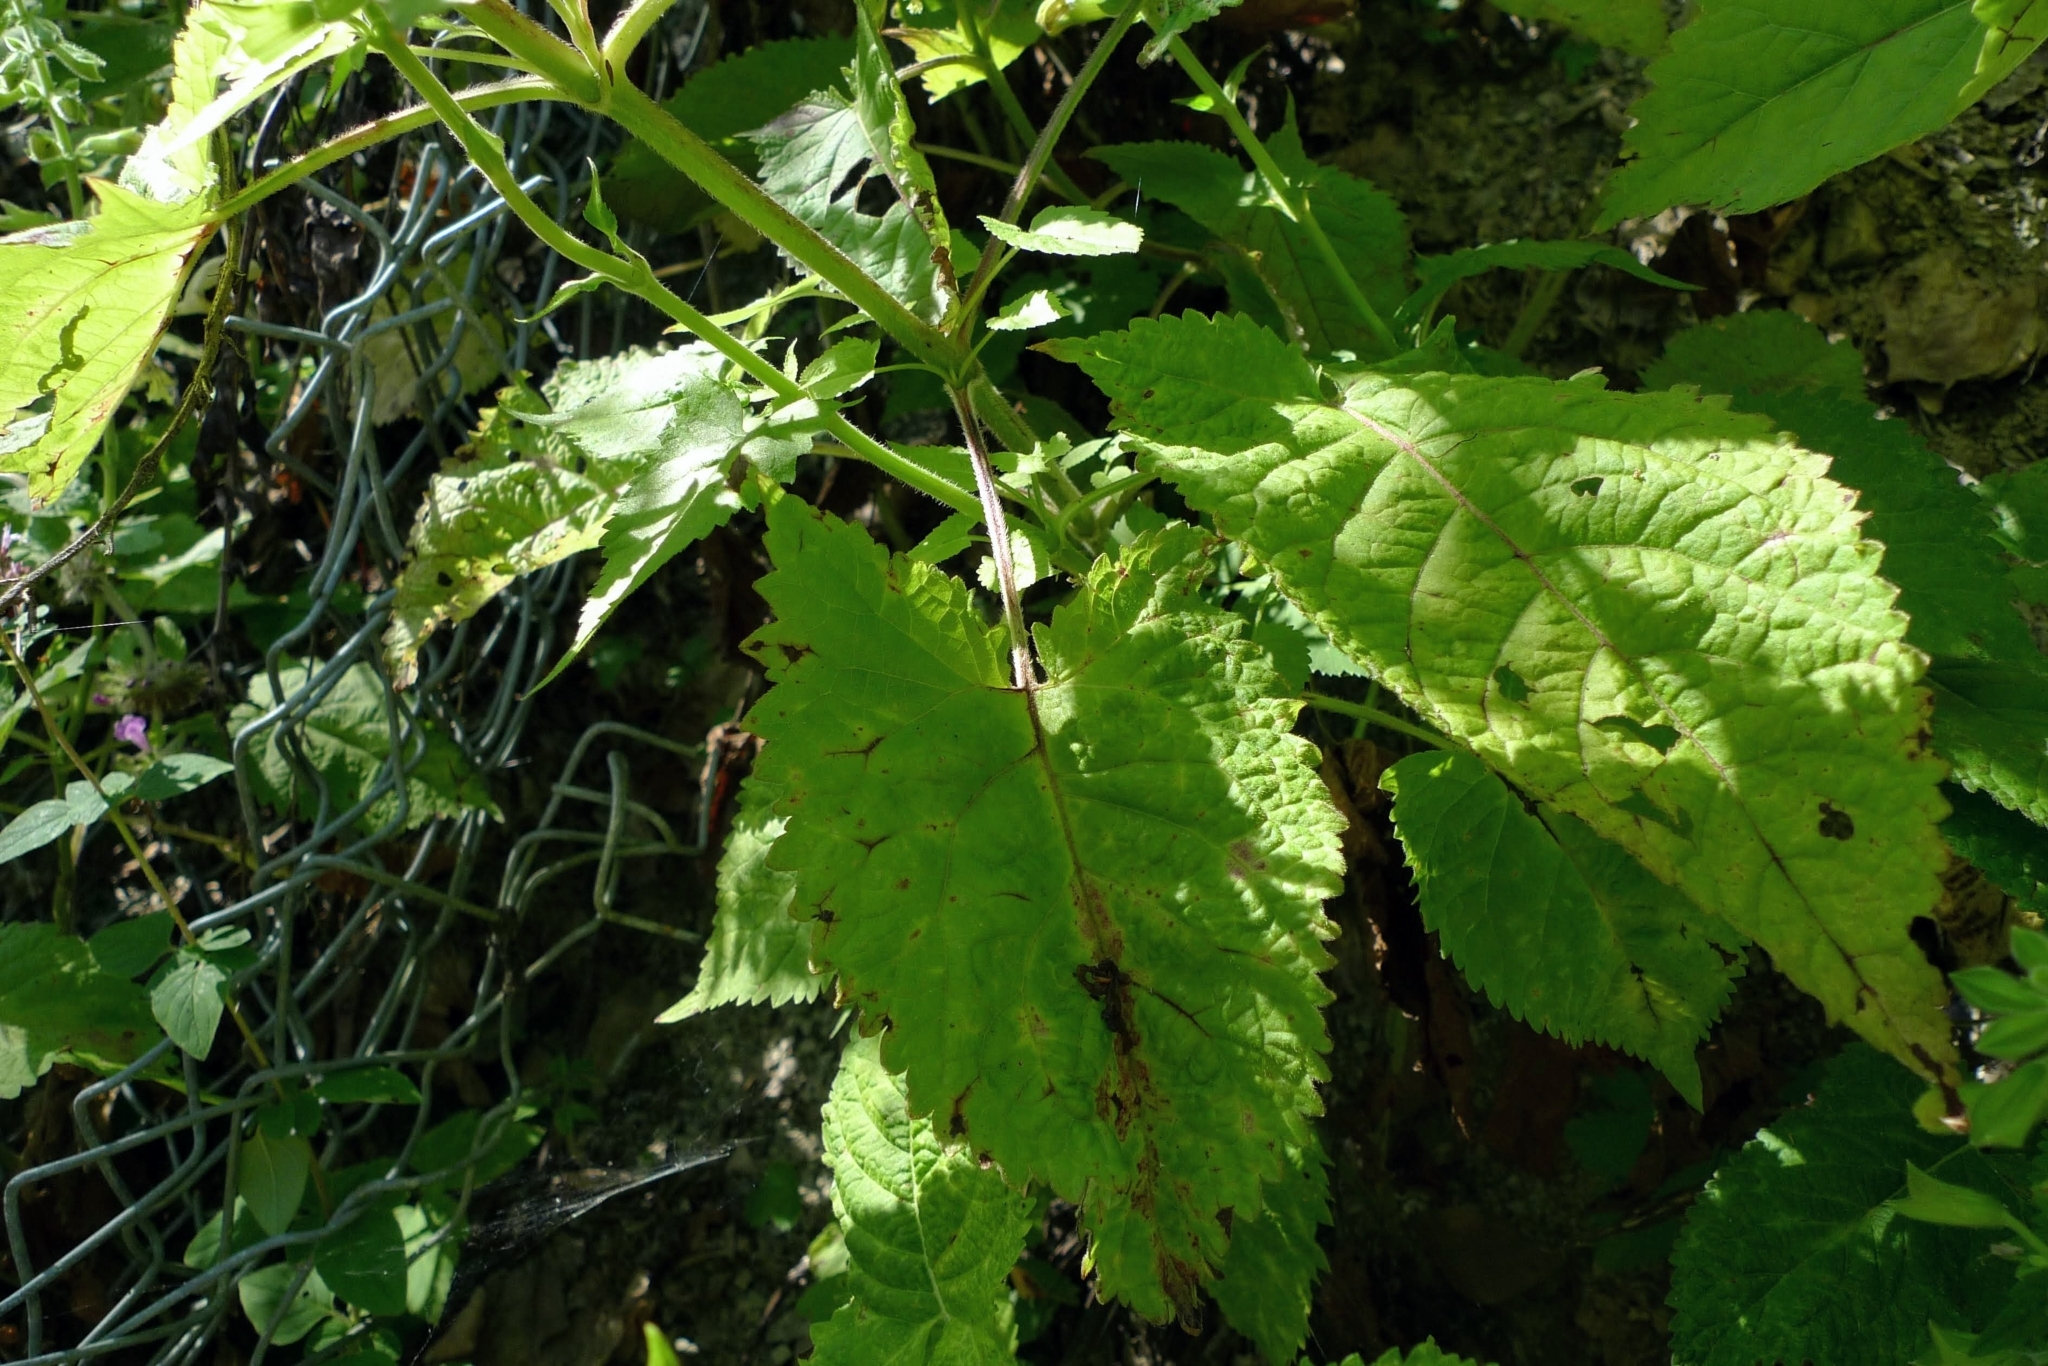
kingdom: Plantae
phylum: Tracheophyta
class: Magnoliopsida
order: Lamiales
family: Lamiaceae
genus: Salvia
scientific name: Salvia glutinosa
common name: Sticky clary
